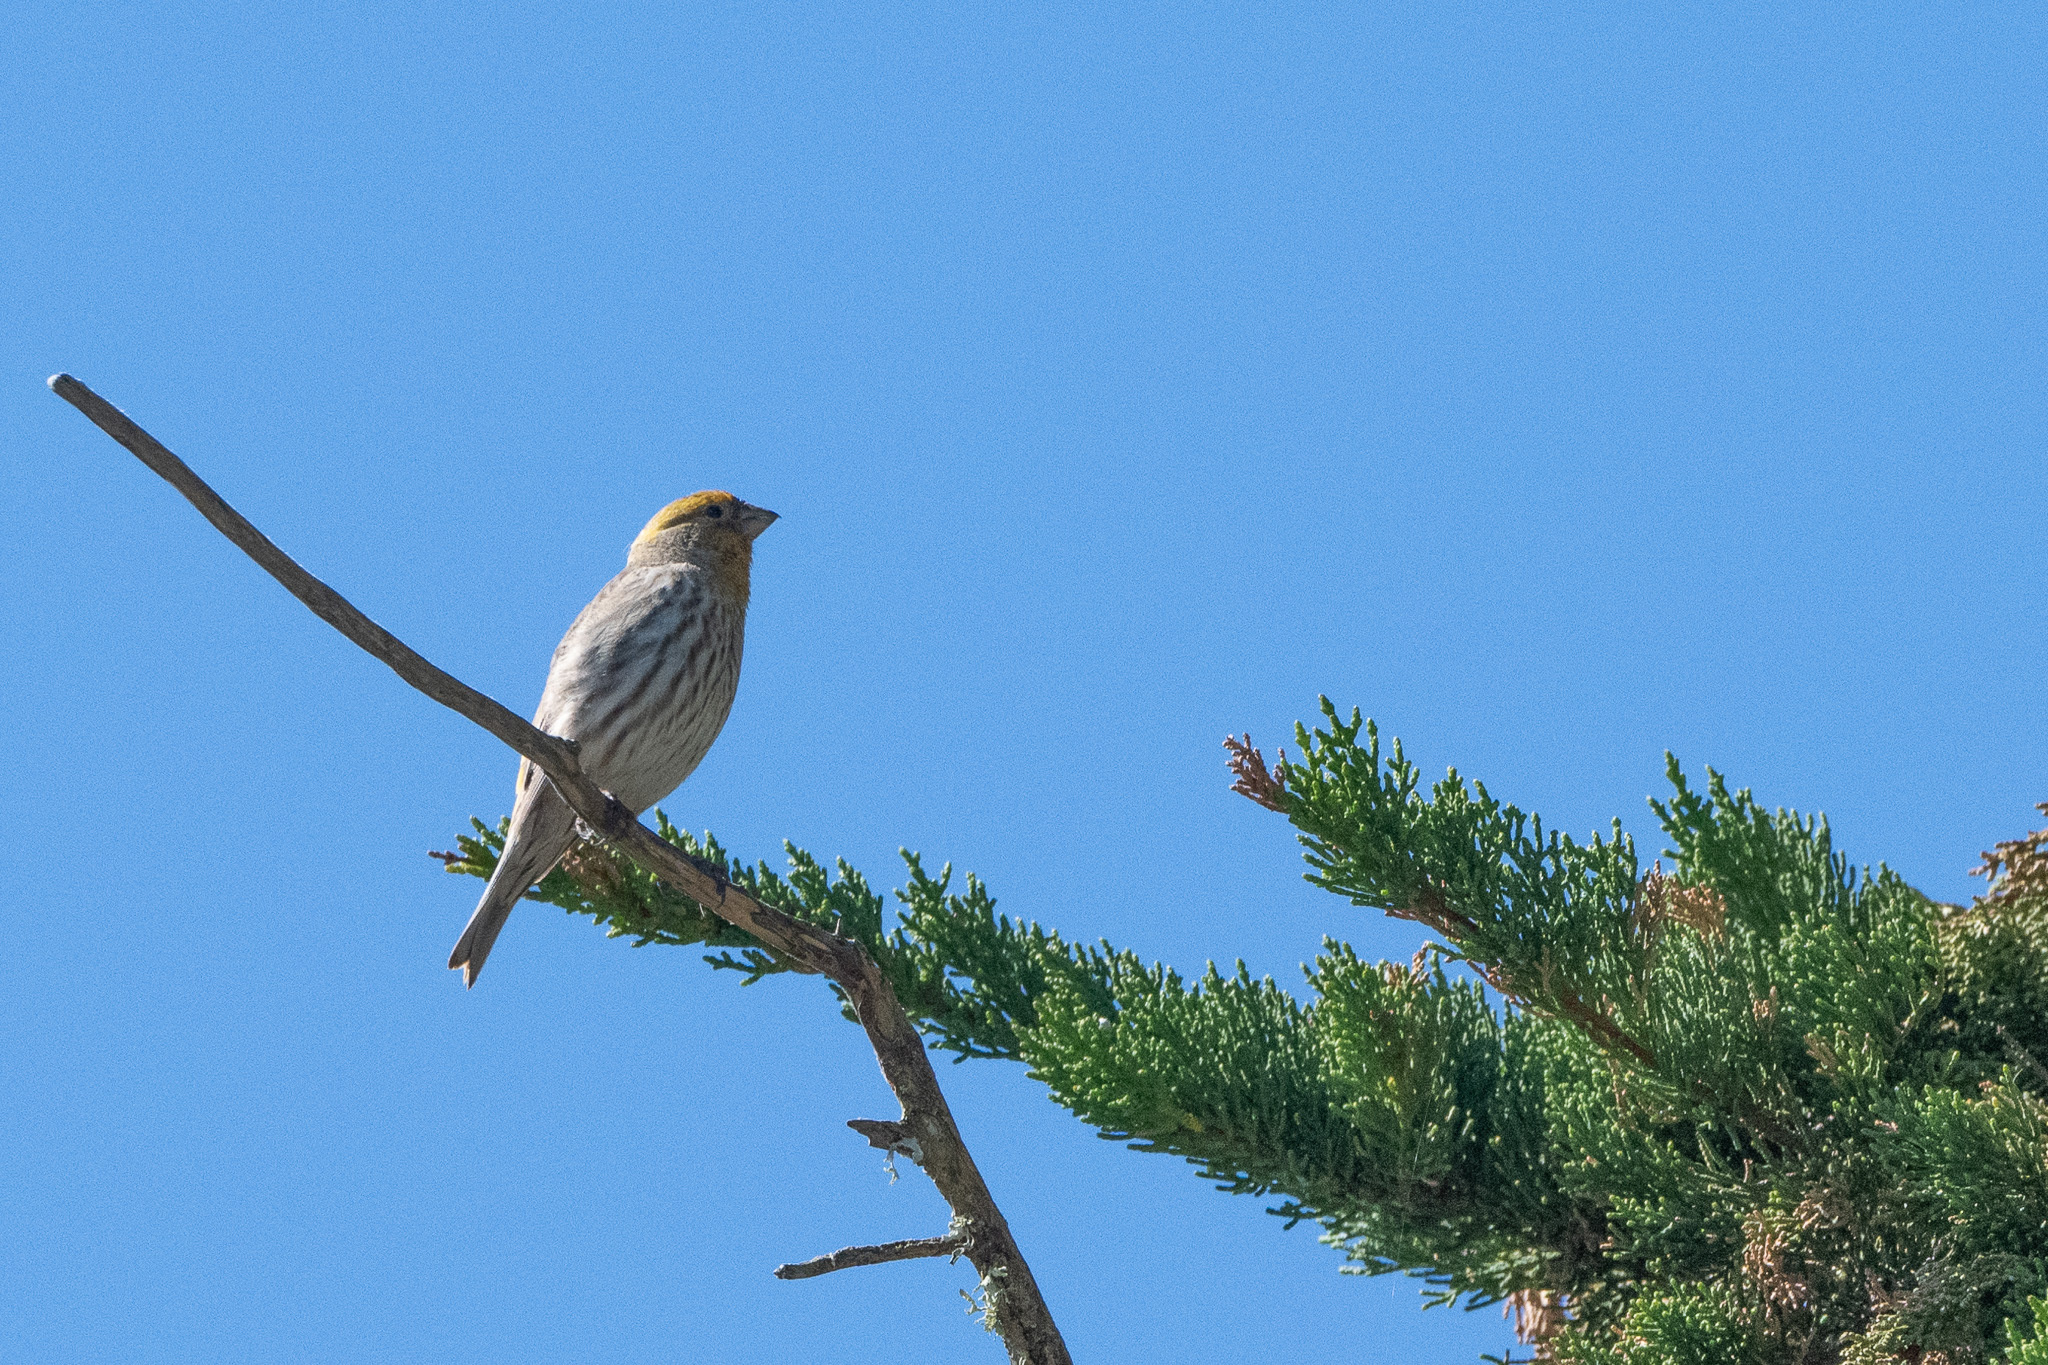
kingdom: Animalia
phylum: Chordata
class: Aves
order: Passeriformes
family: Fringillidae
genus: Haemorhous
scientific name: Haemorhous mexicanus
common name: House finch
